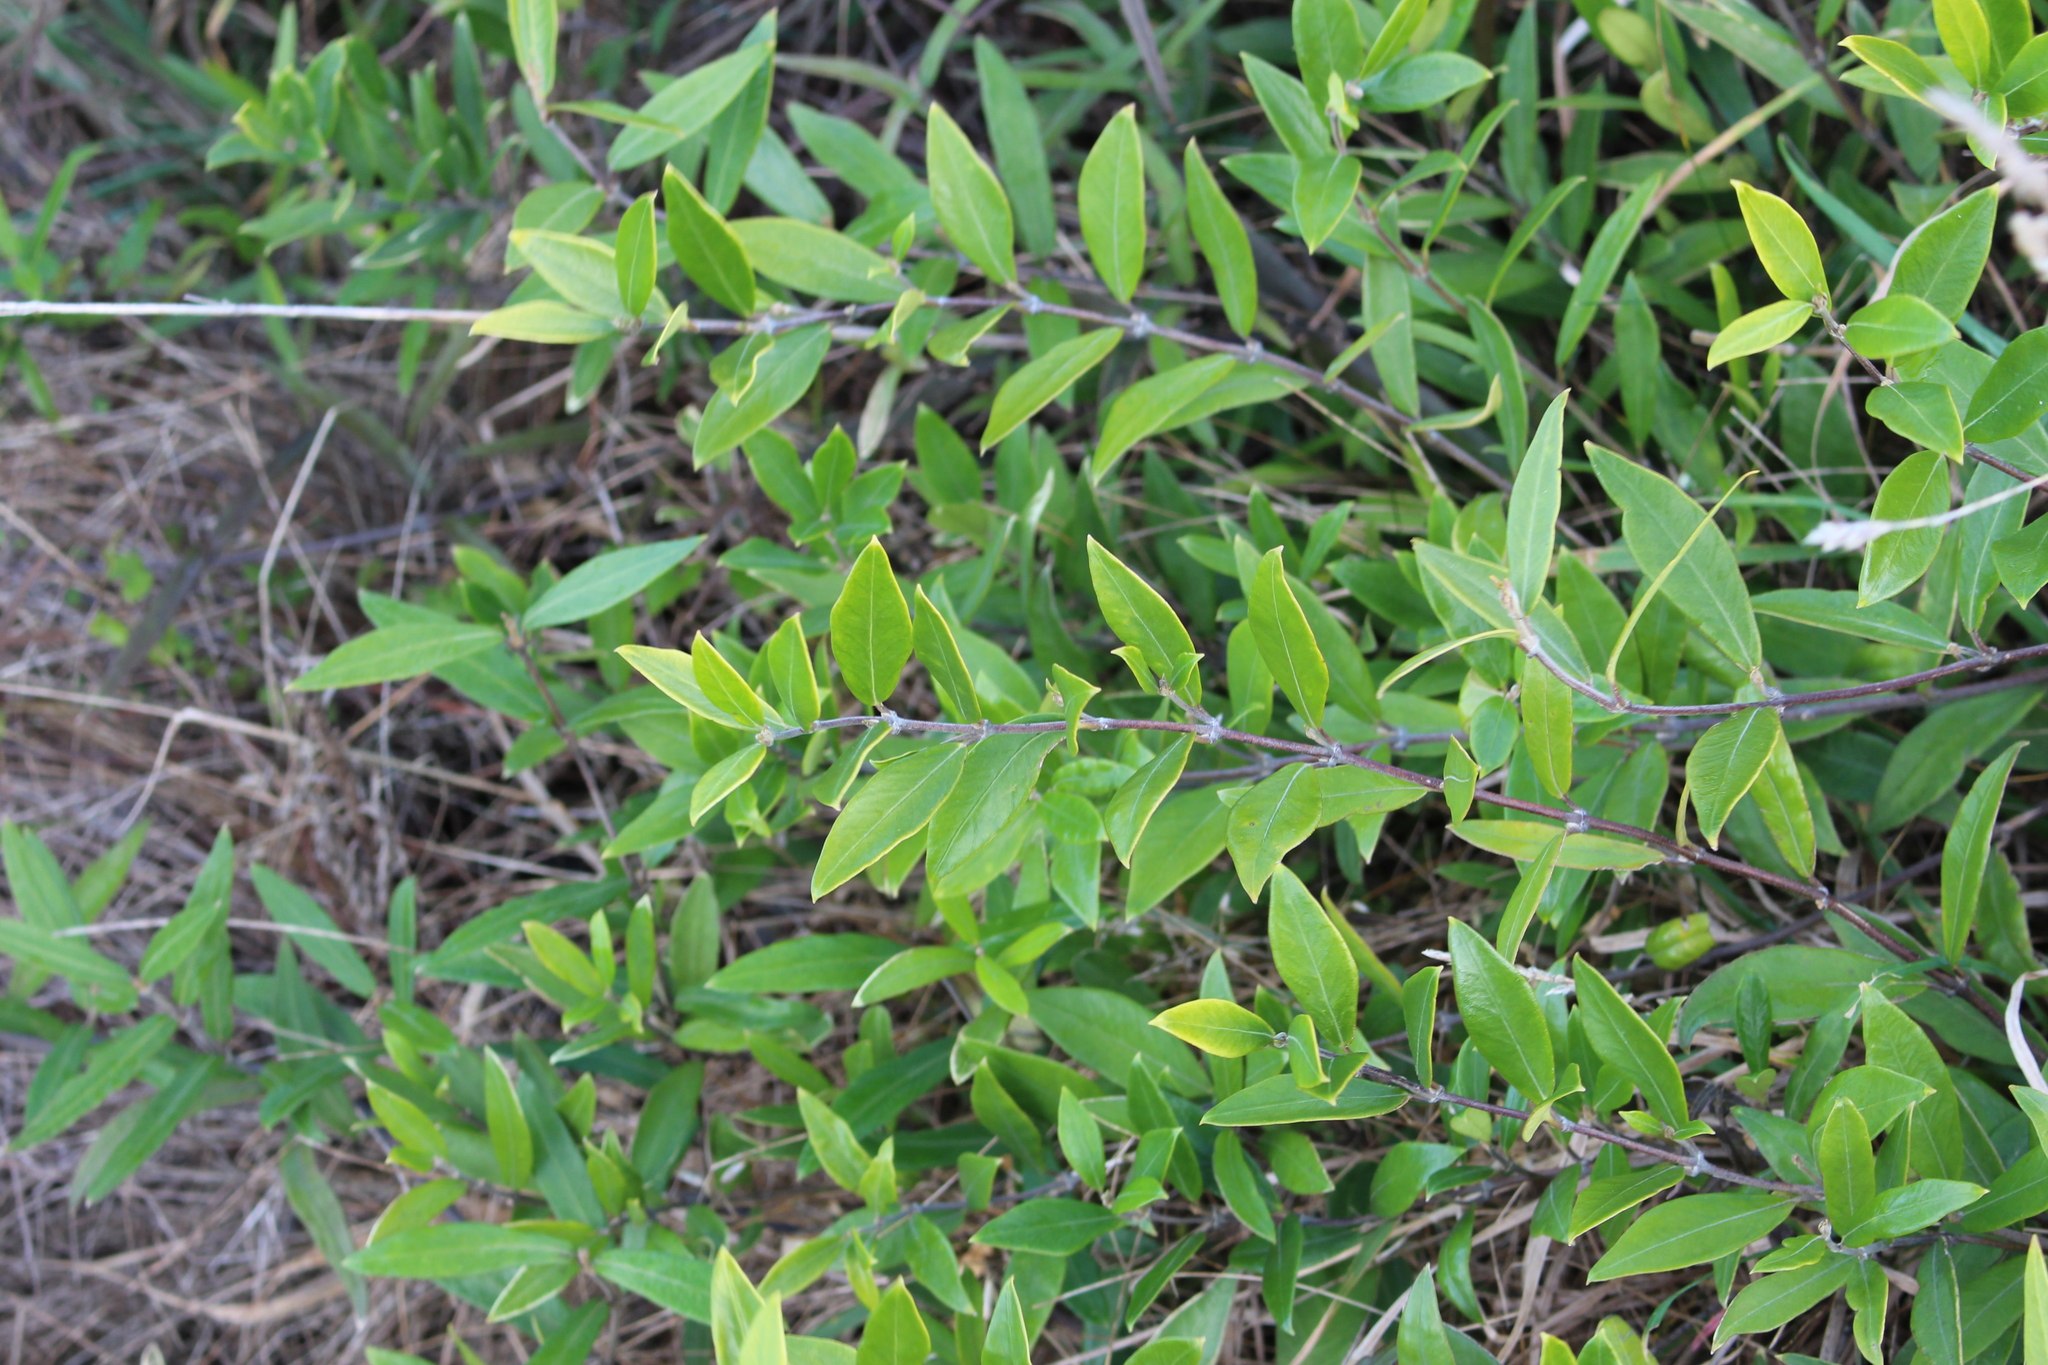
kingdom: Plantae
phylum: Tracheophyta
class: Magnoliopsida
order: Gentianales
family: Apocynaceae
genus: Parsonsia
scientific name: Parsonsia heterophylla
